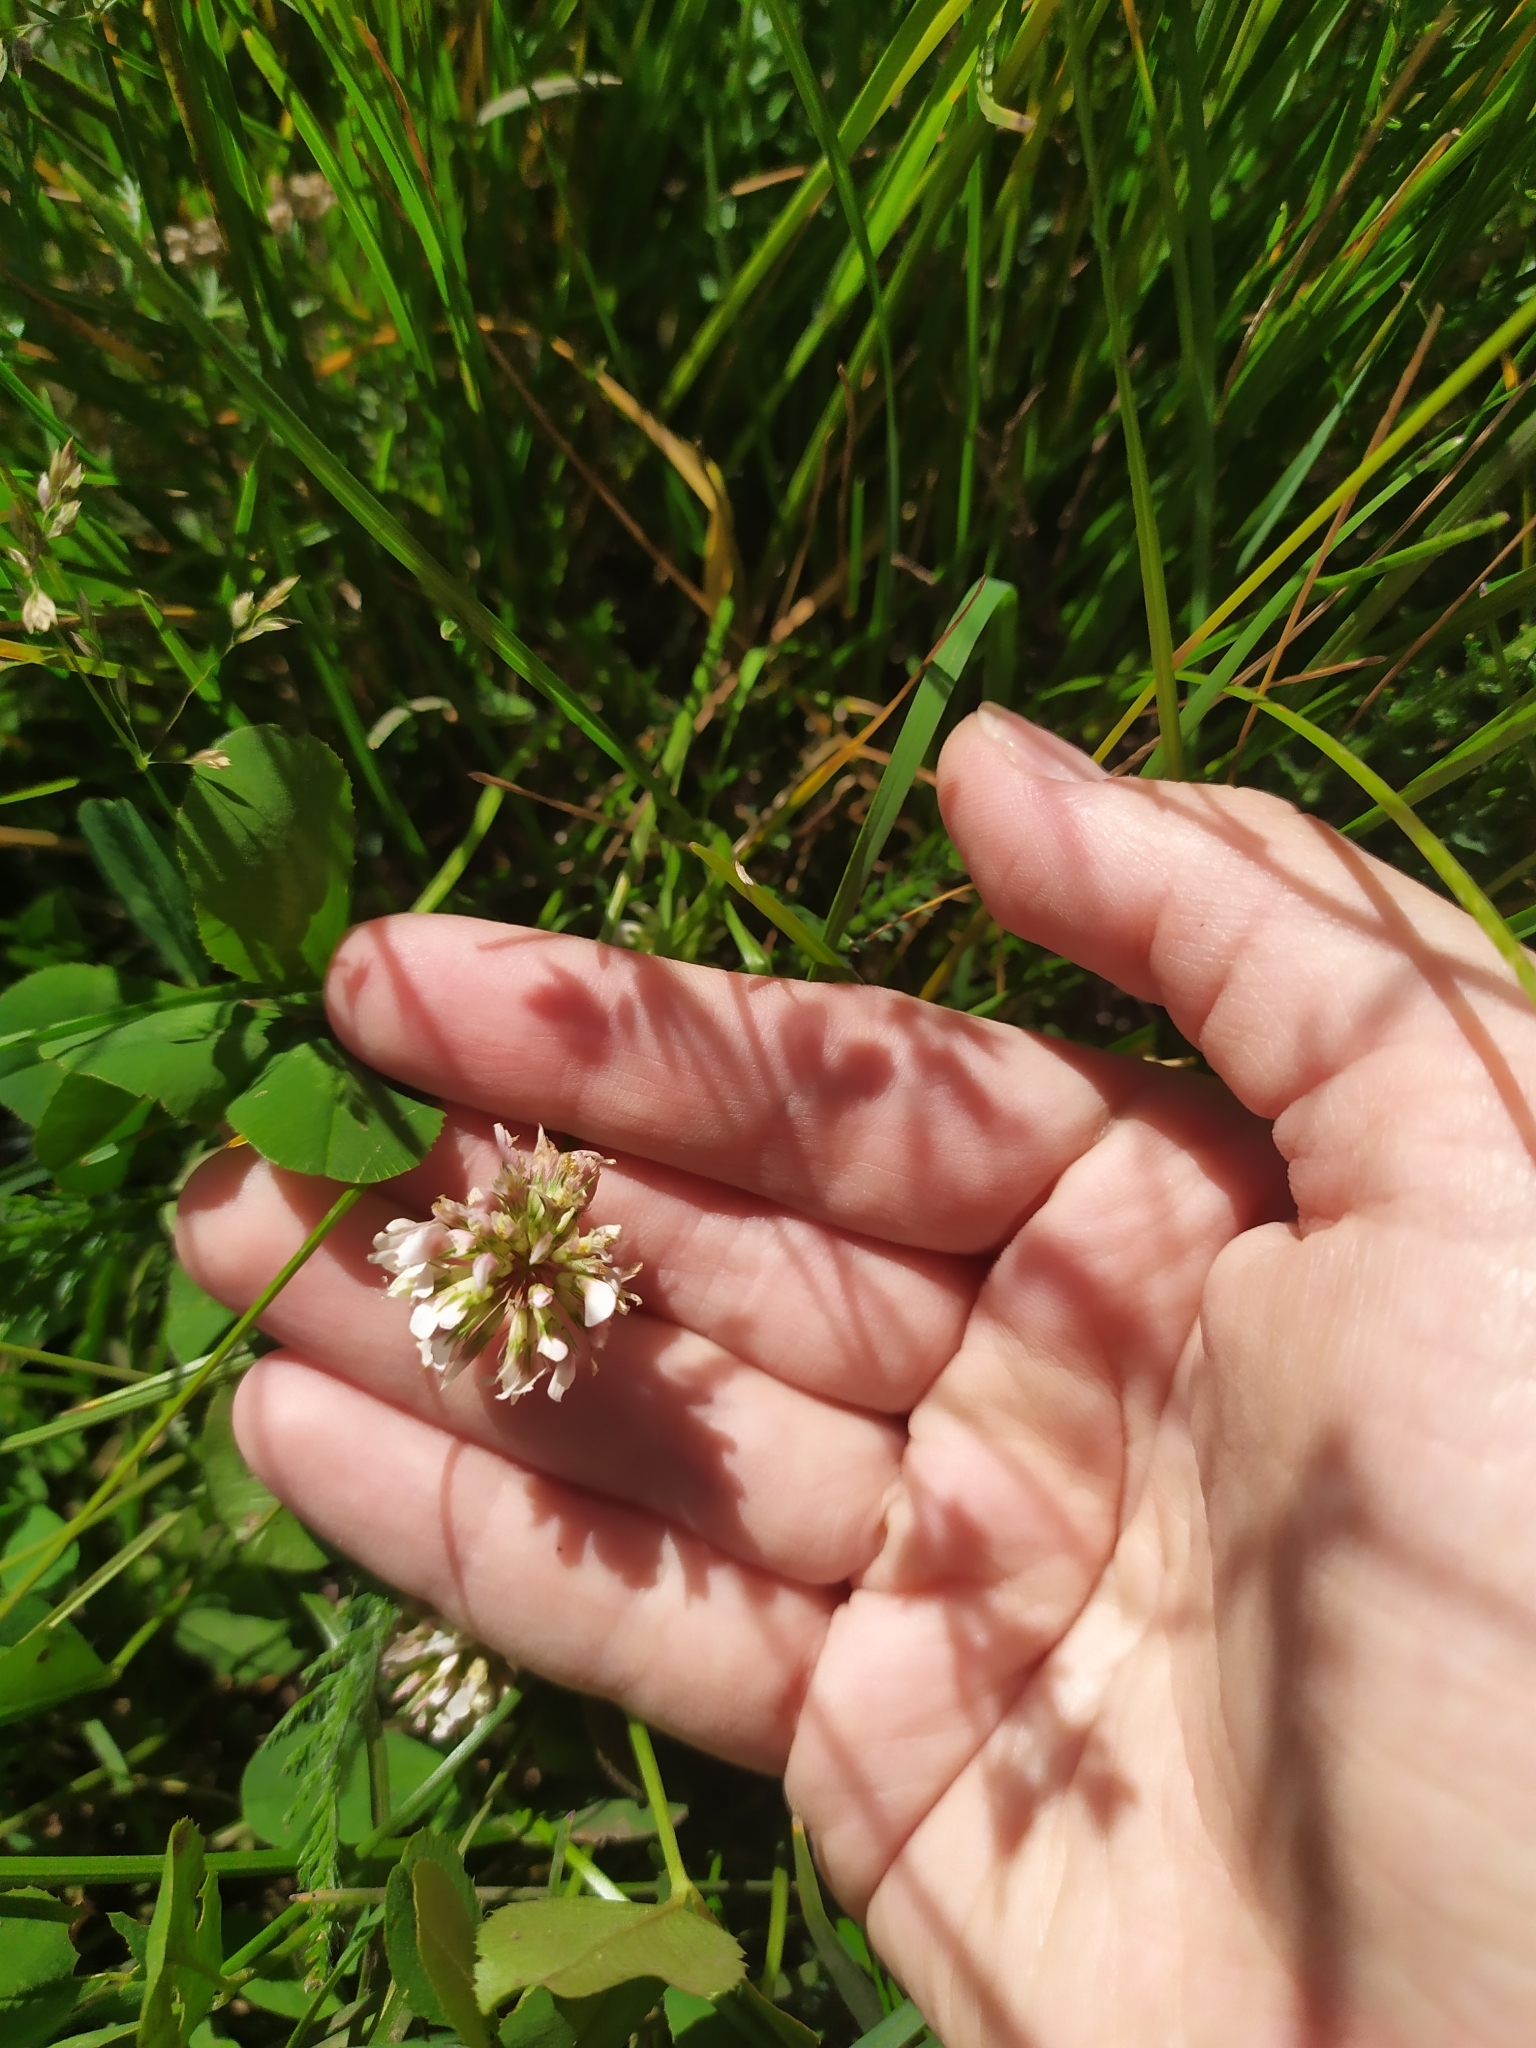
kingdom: Plantae
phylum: Tracheophyta
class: Magnoliopsida
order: Fabales
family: Fabaceae
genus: Trifolium
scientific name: Trifolium repens
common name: White clover
